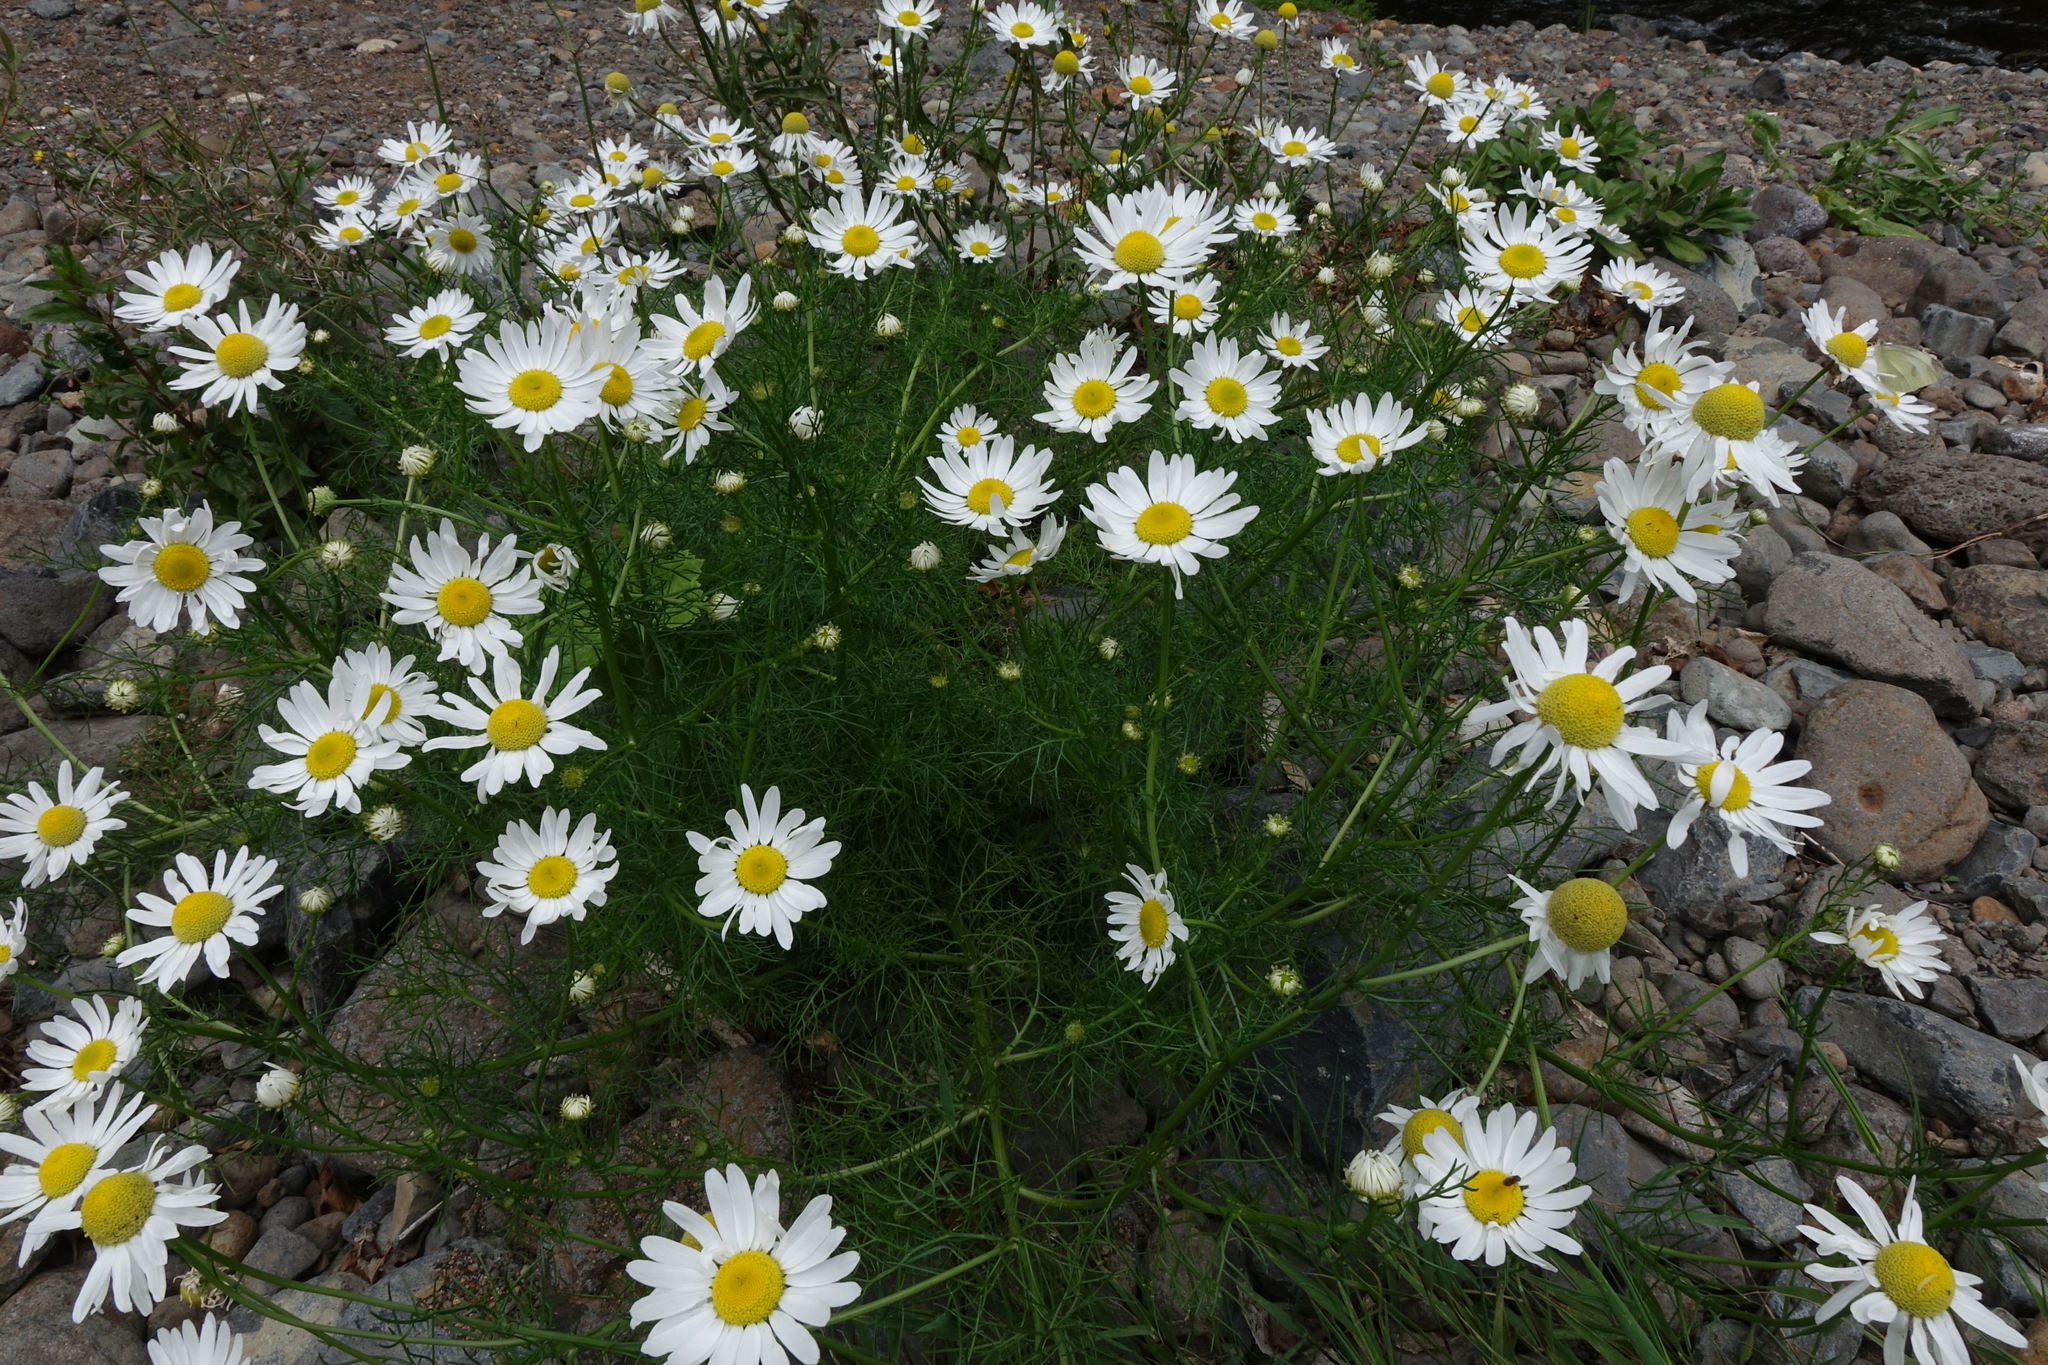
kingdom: Plantae
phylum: Tracheophyta
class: Magnoliopsida
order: Asterales
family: Asteraceae
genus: Tripleurospermum
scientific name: Tripleurospermum inodorum
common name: Scentless mayweed
